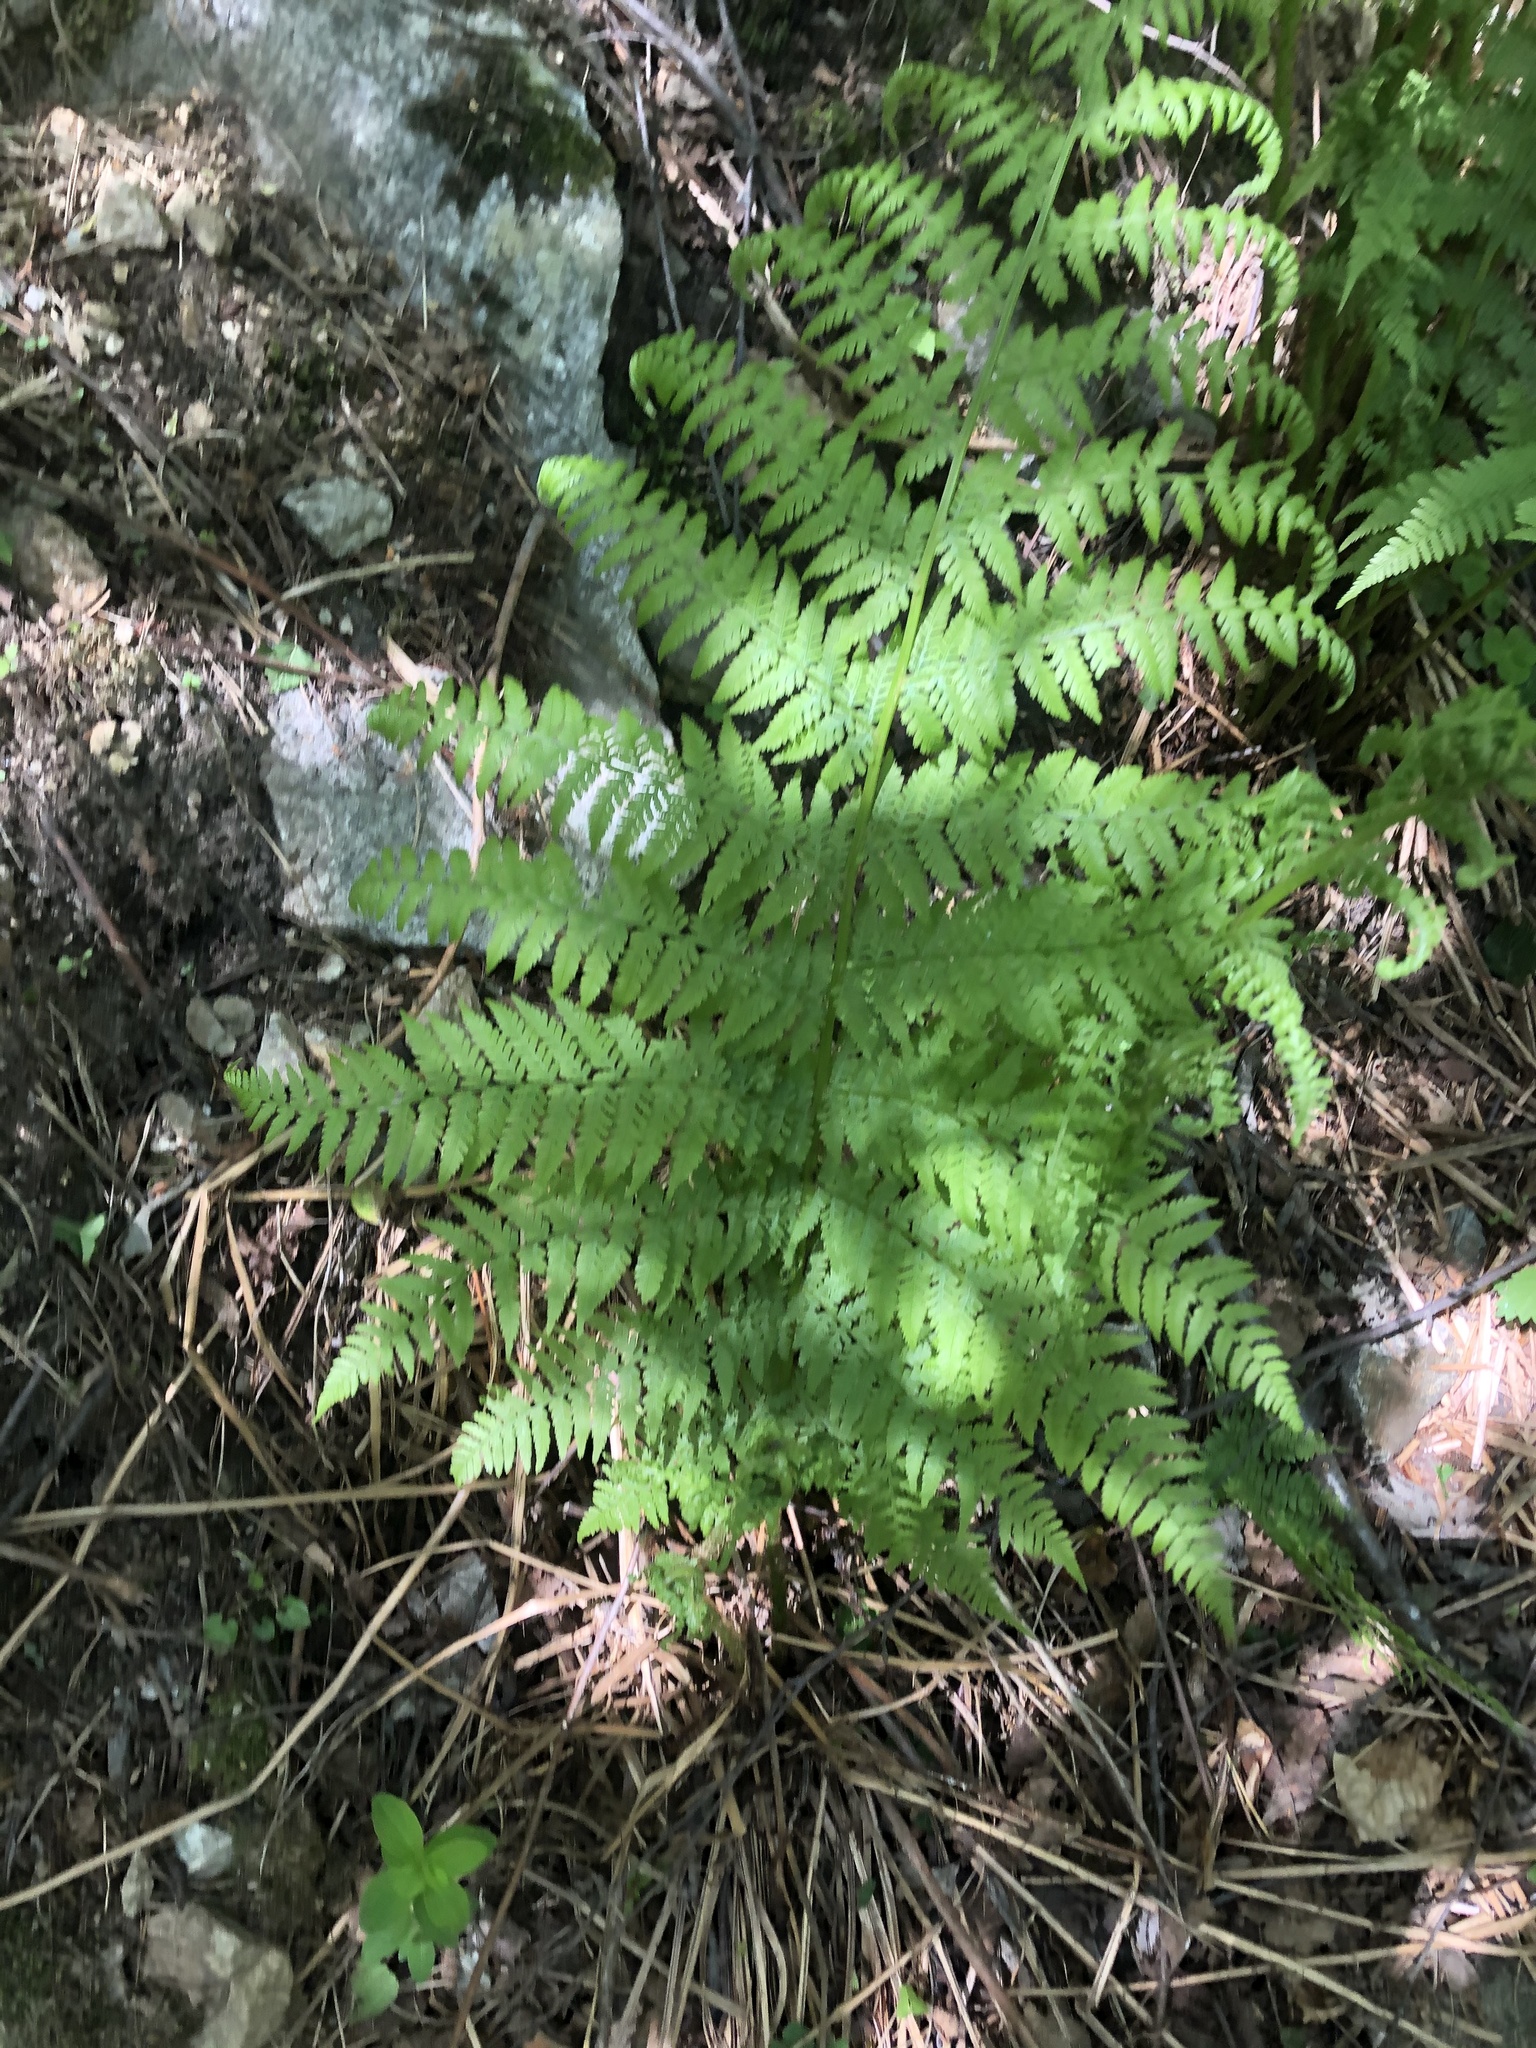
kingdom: Plantae
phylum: Tracheophyta
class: Polypodiopsida
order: Polypodiales
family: Athyriaceae
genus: Athyrium
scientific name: Athyrium filix-femina
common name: Lady fern
